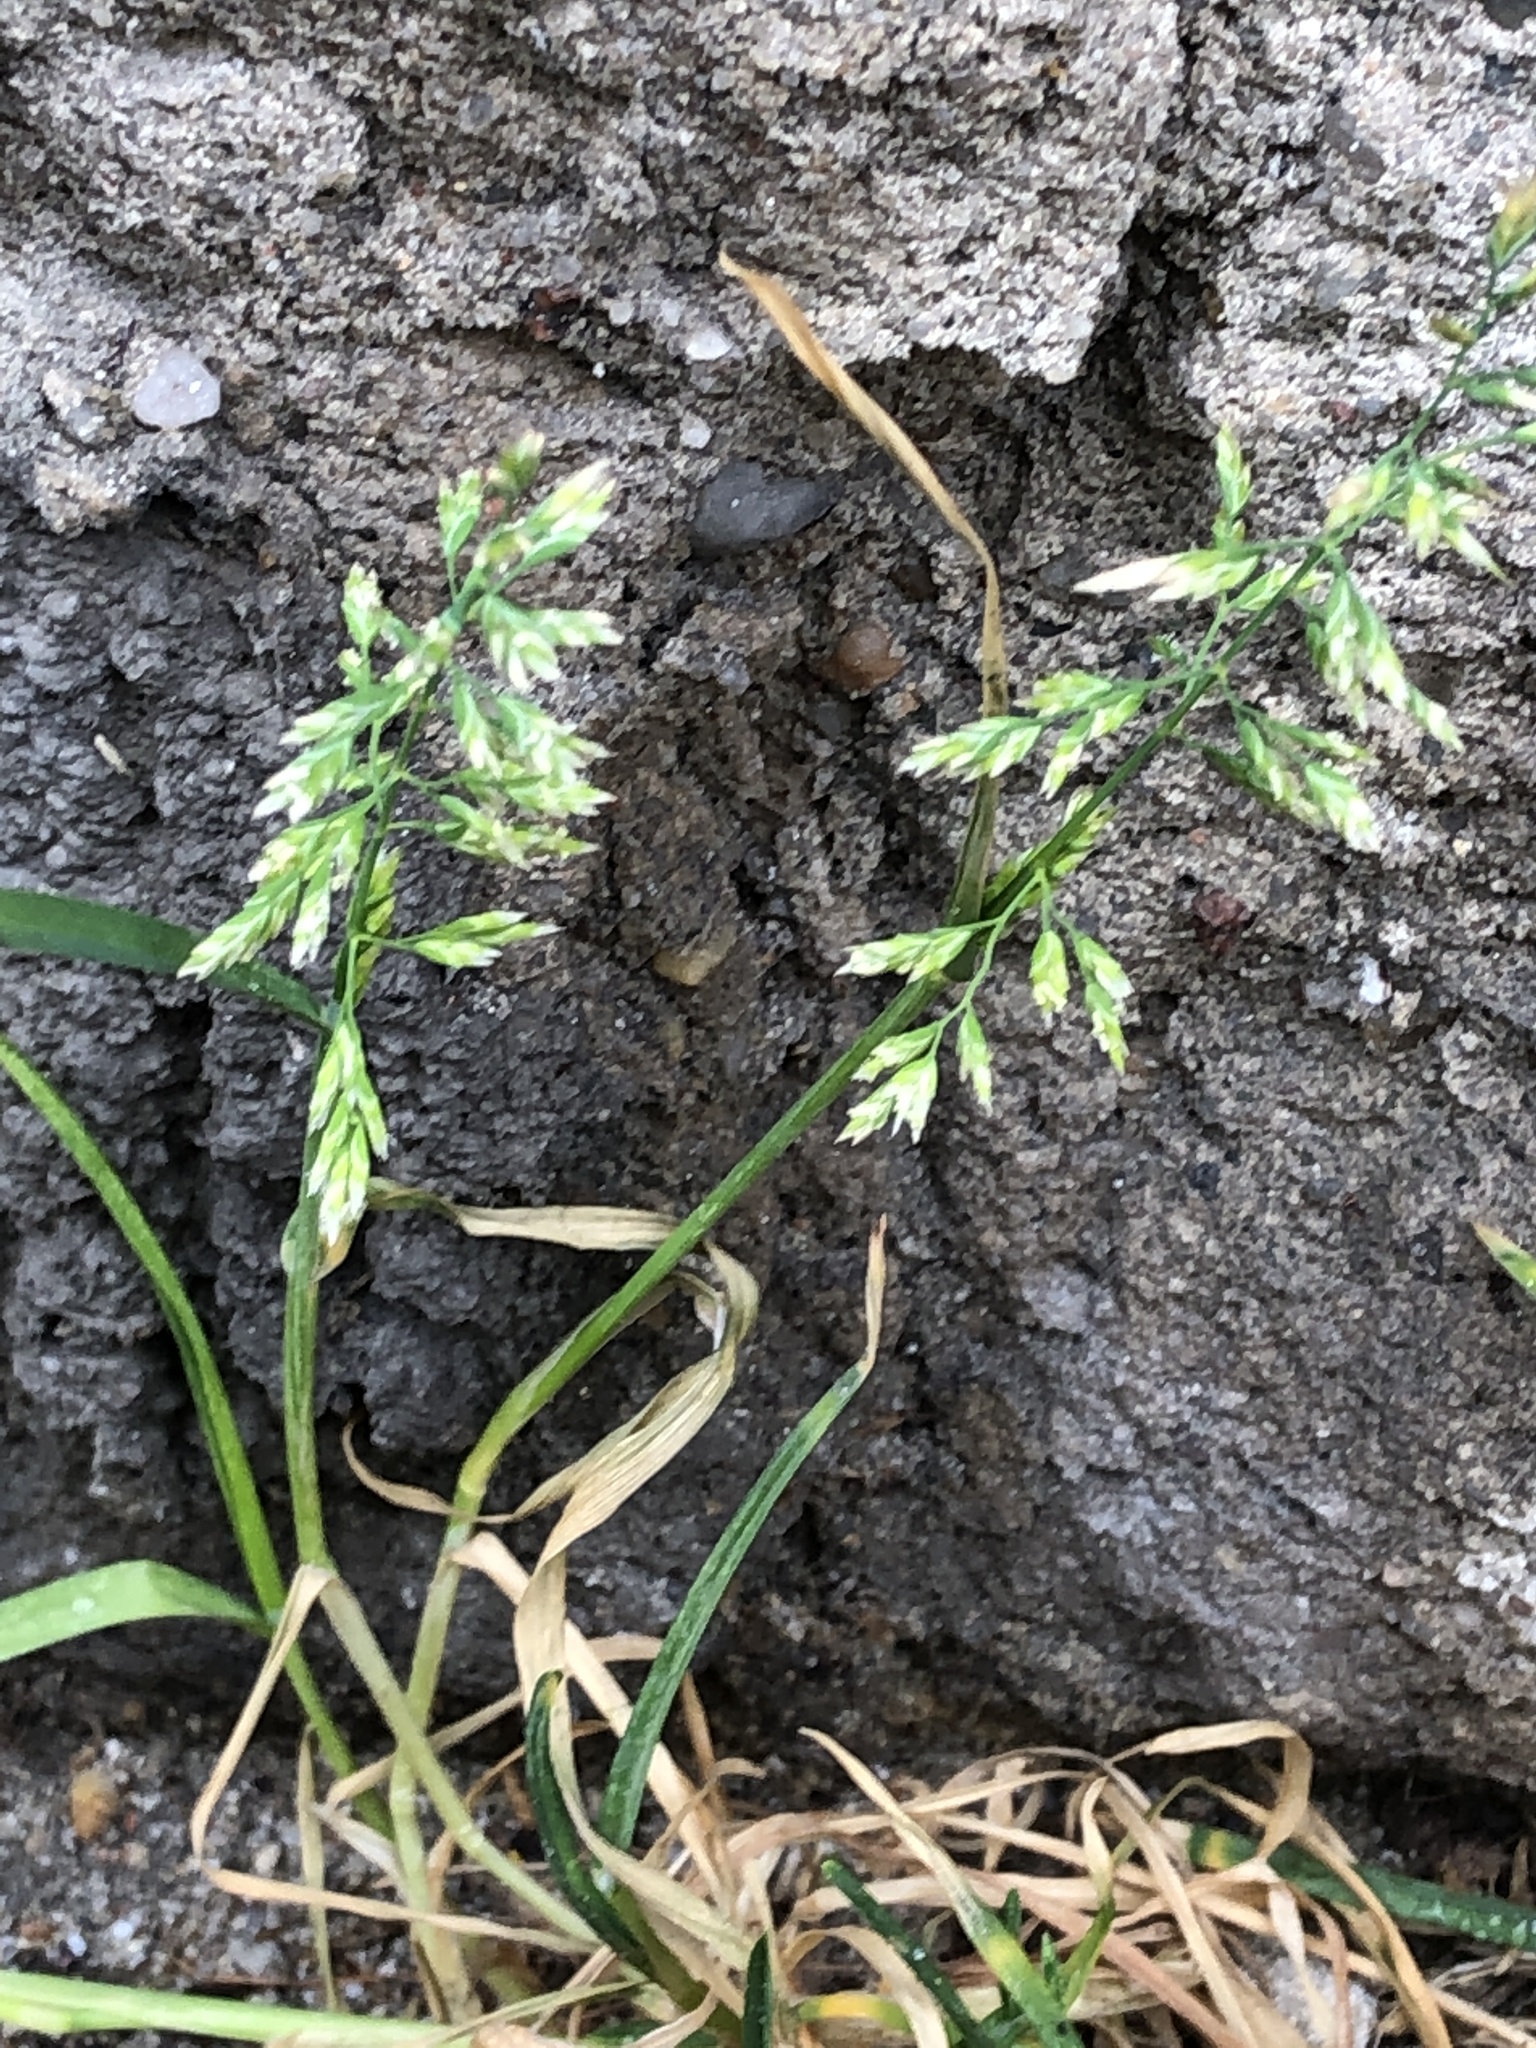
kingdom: Plantae
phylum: Tracheophyta
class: Liliopsida
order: Poales
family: Poaceae
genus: Poa
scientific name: Poa annua
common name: Annual bluegrass
